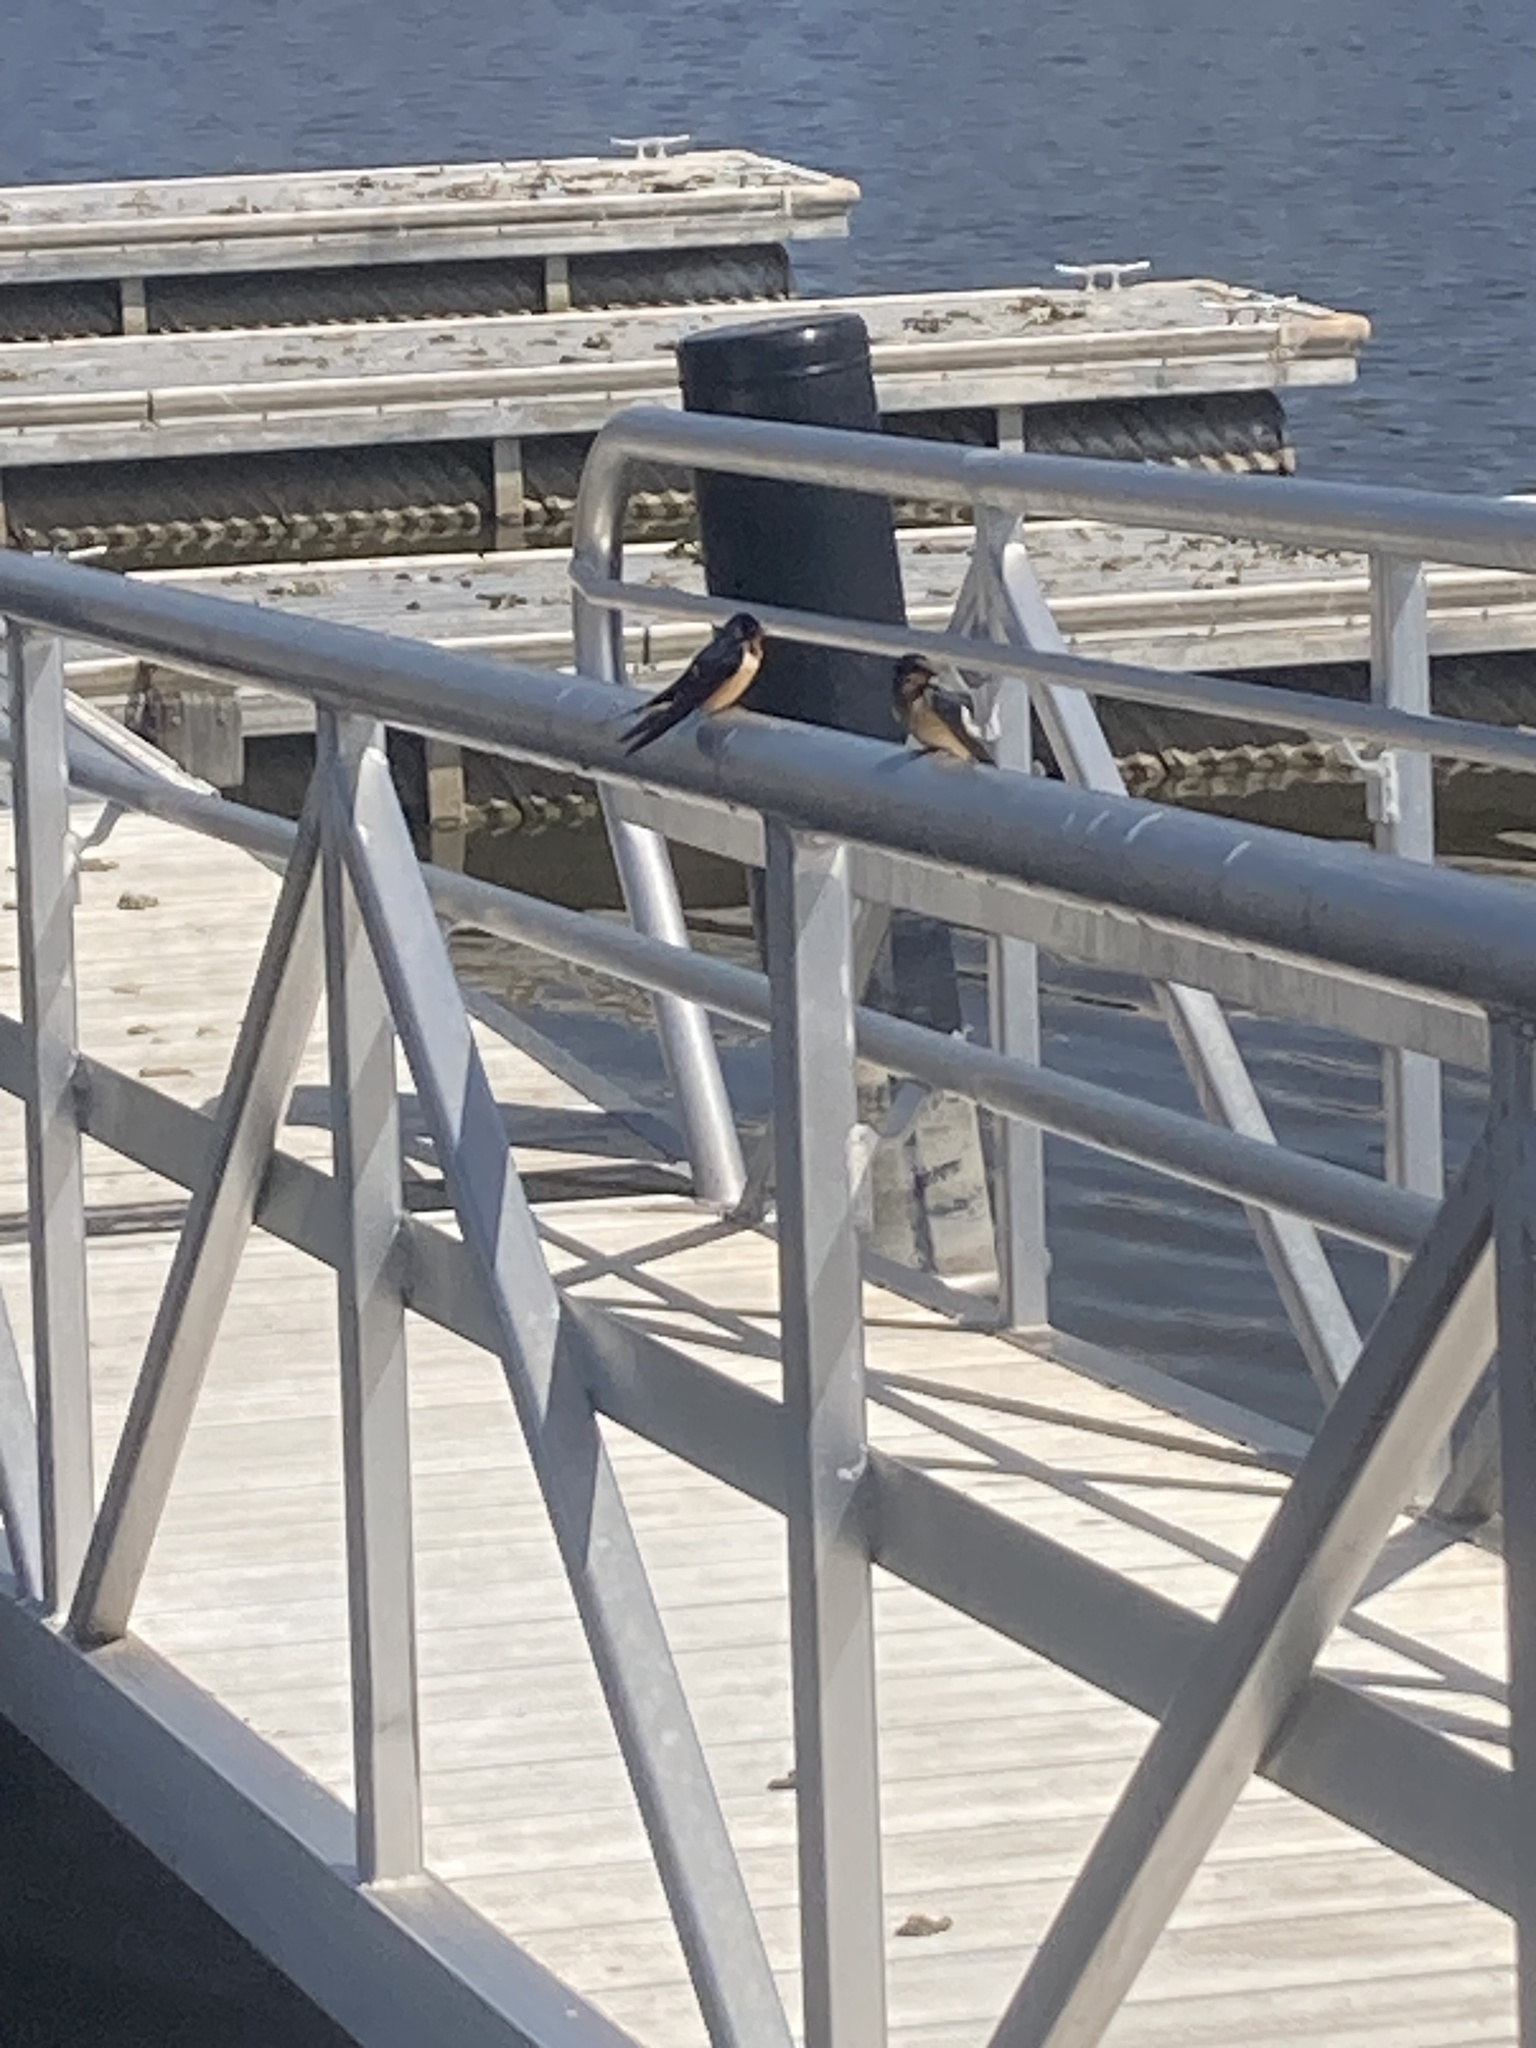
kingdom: Animalia
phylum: Chordata
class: Aves
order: Passeriformes
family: Hirundinidae
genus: Hirundo
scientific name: Hirundo rustica
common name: Barn swallow
